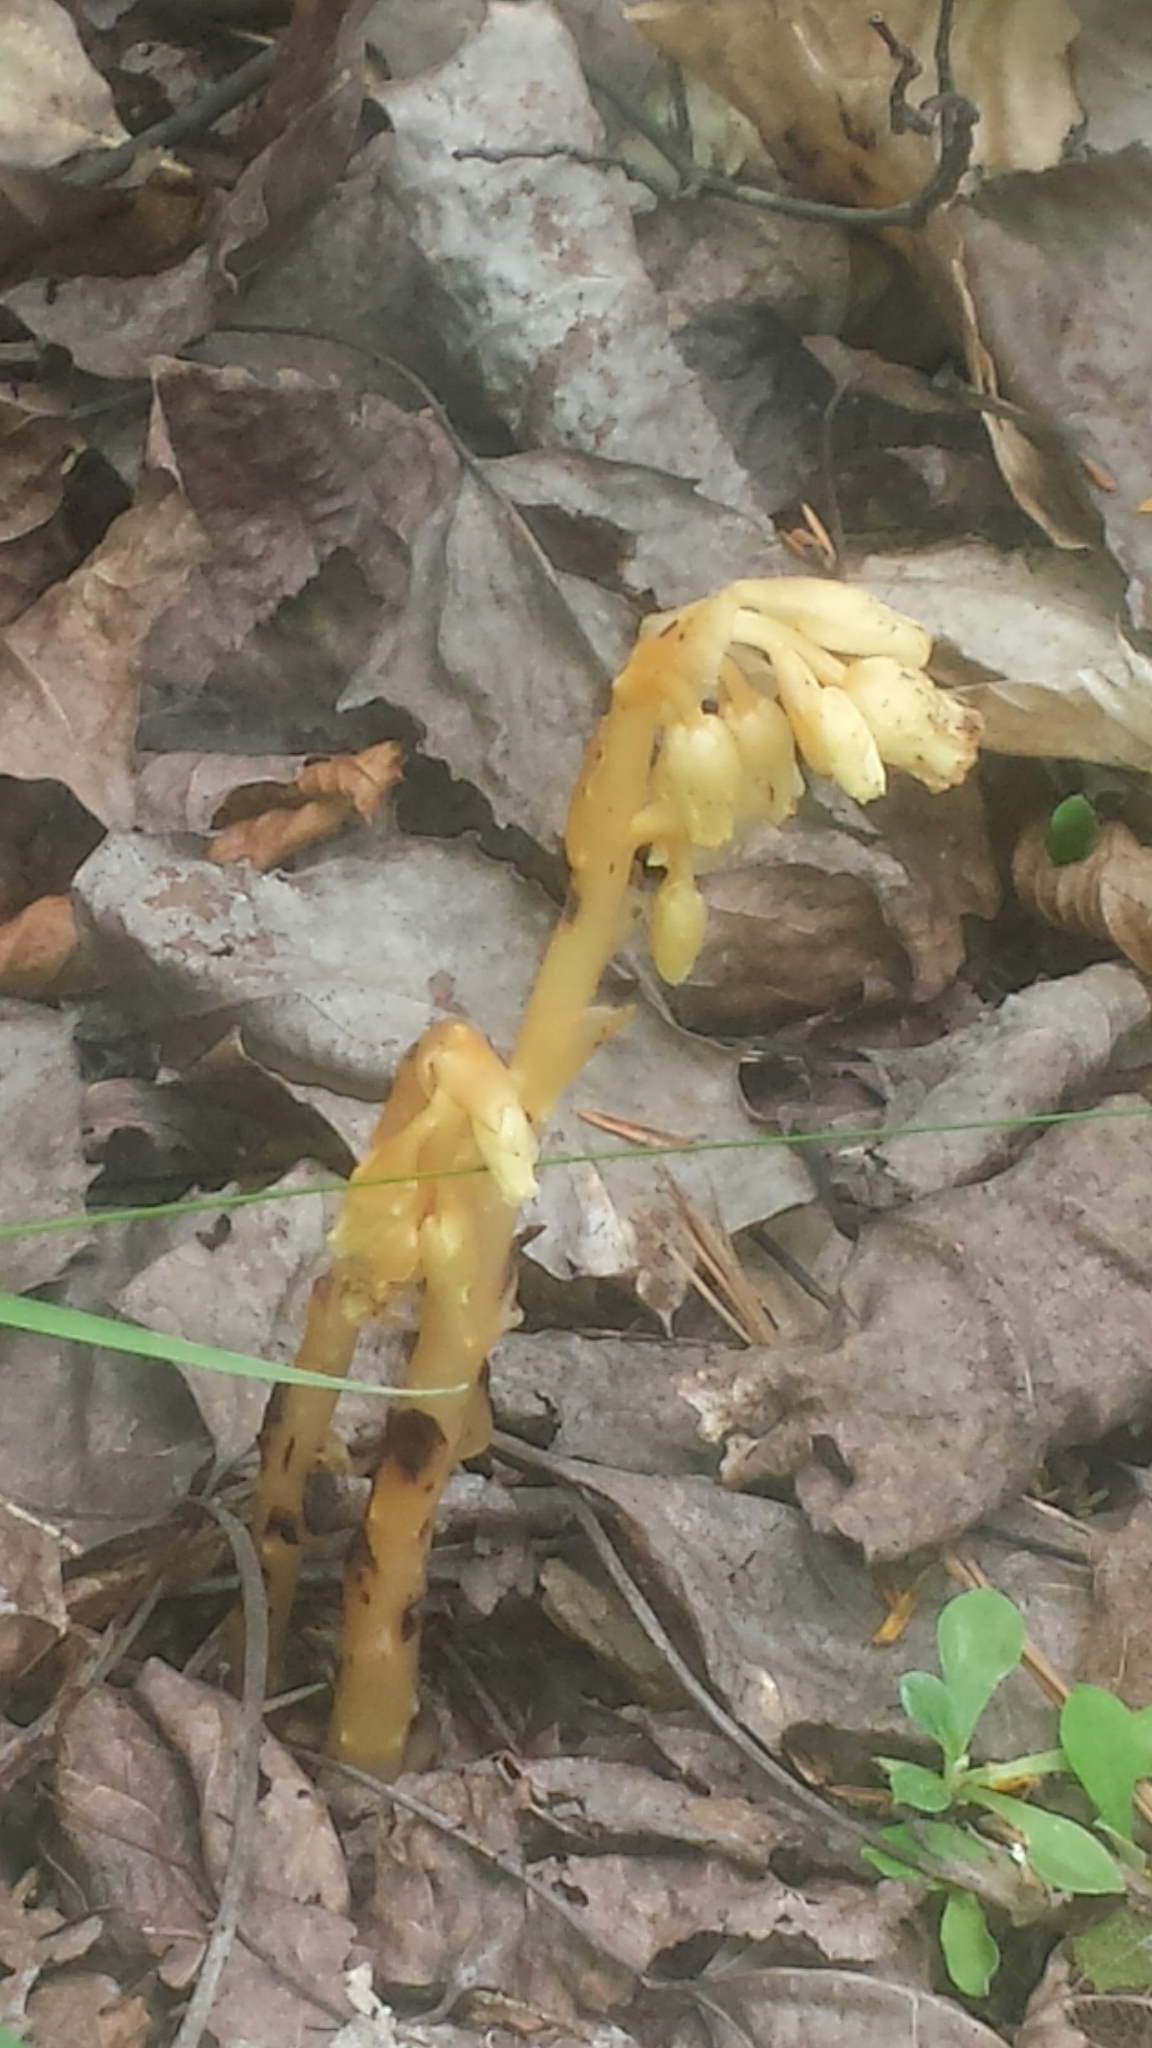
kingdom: Plantae
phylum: Tracheophyta
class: Magnoliopsida
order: Ericales
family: Ericaceae
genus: Hypopitys
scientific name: Hypopitys monotropa
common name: Yellow bird's-nest
